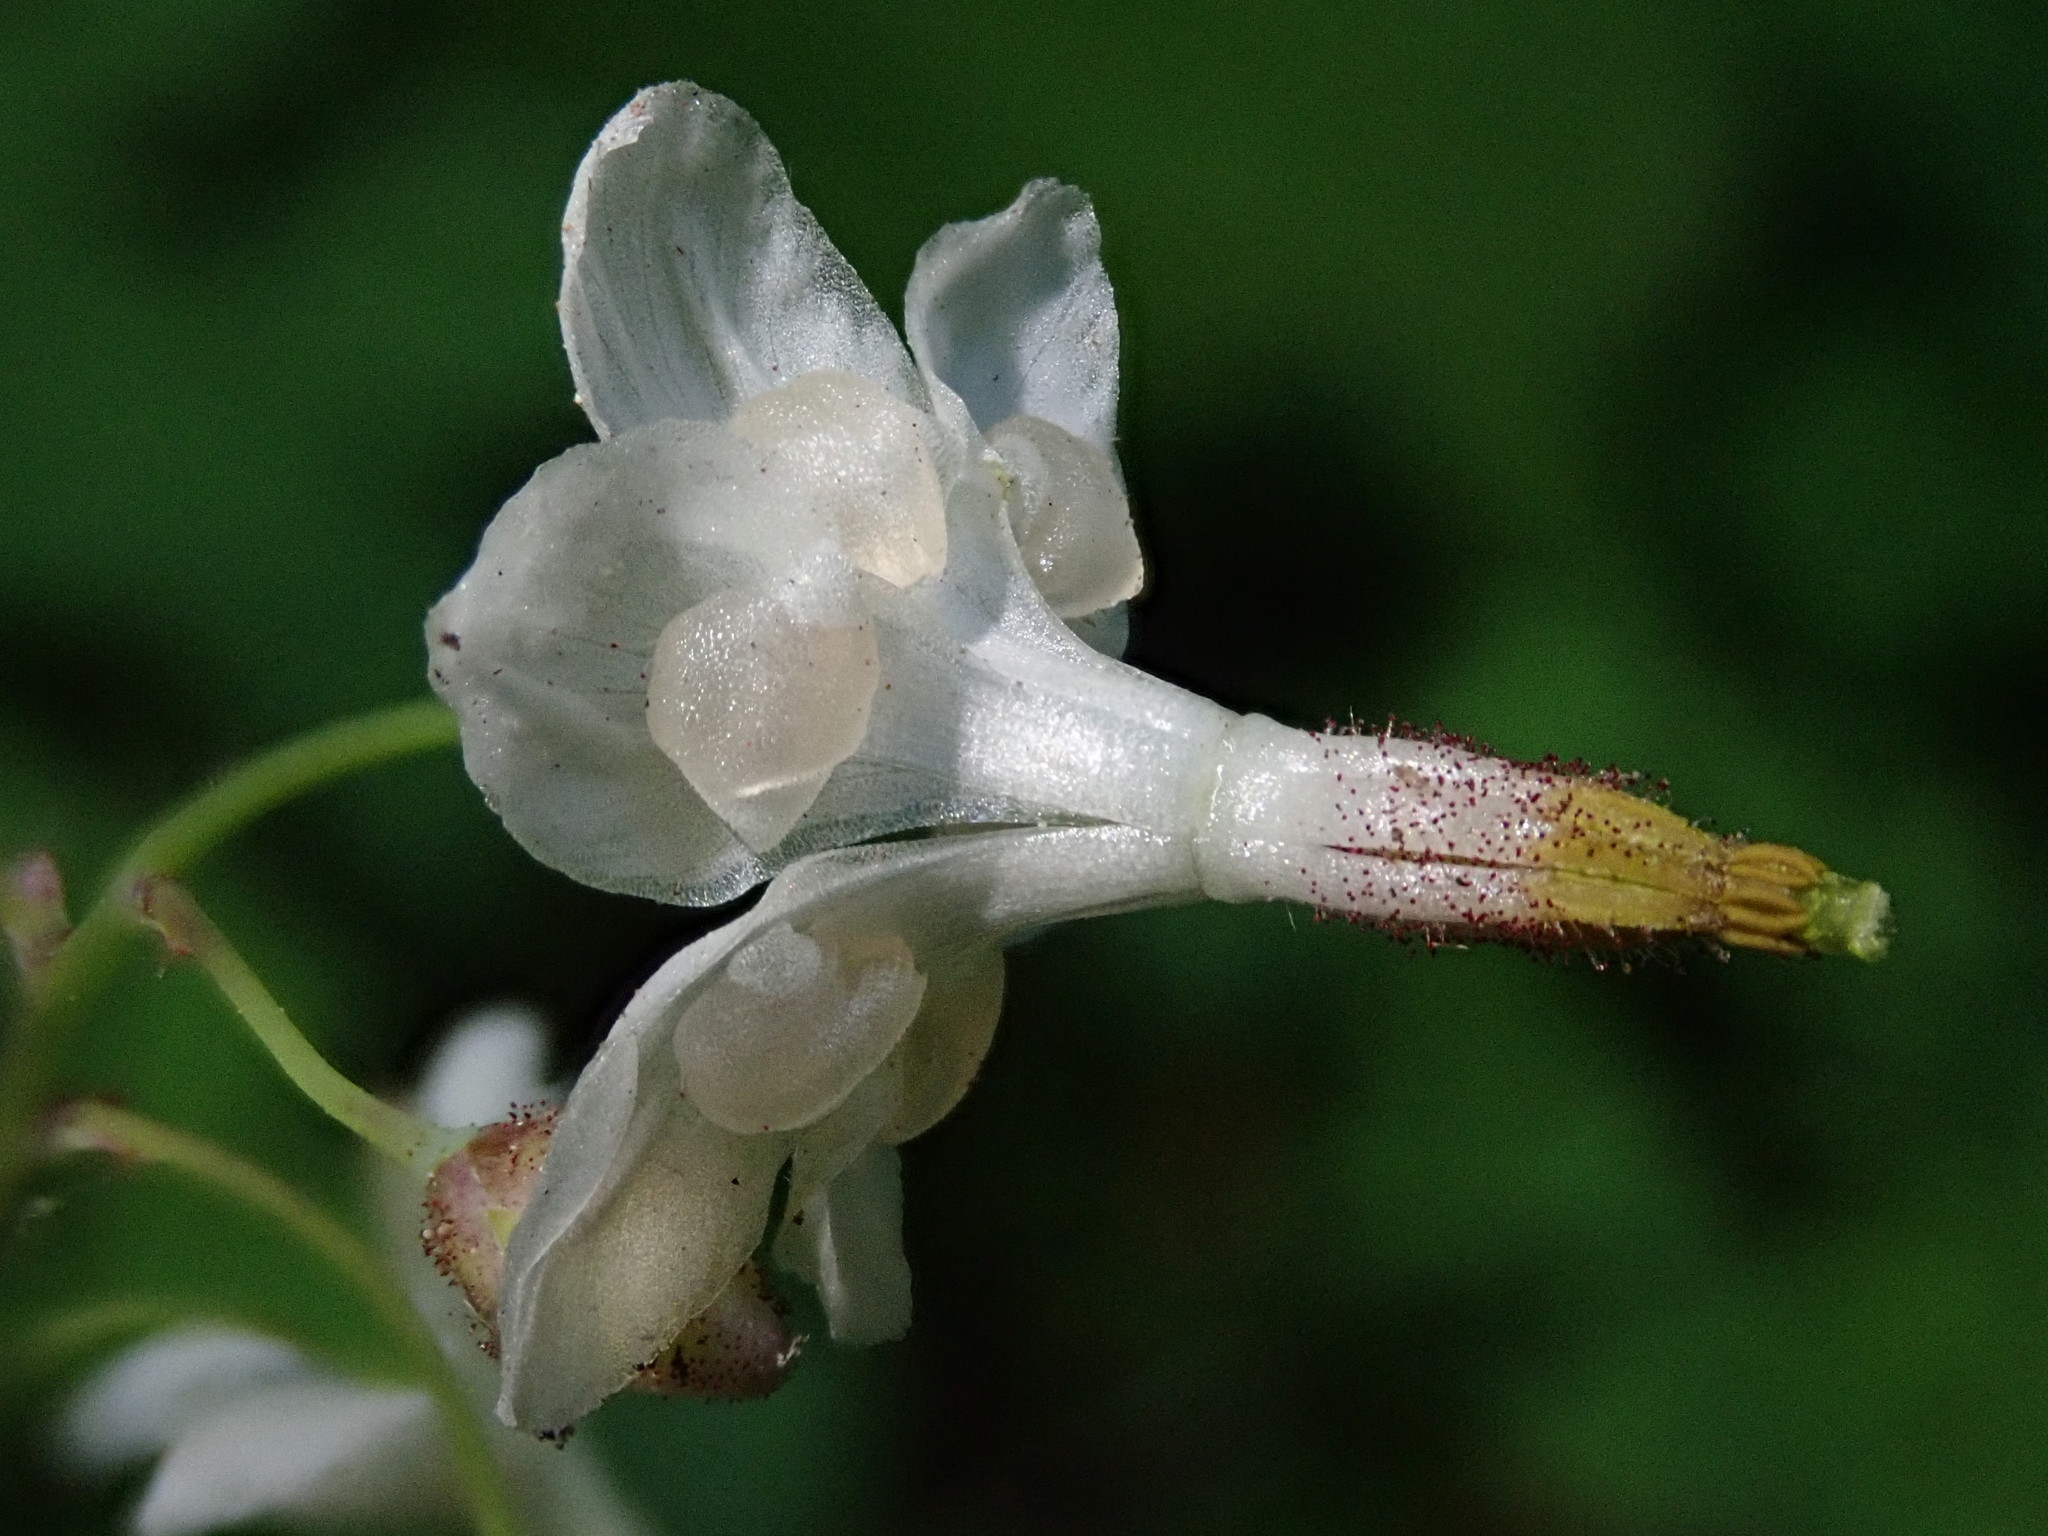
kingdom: Plantae
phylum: Tracheophyta
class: Magnoliopsida
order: Ranunculales
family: Berberidaceae
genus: Vancouveria
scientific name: Vancouveria hexandra
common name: Northern inside-out-flower
